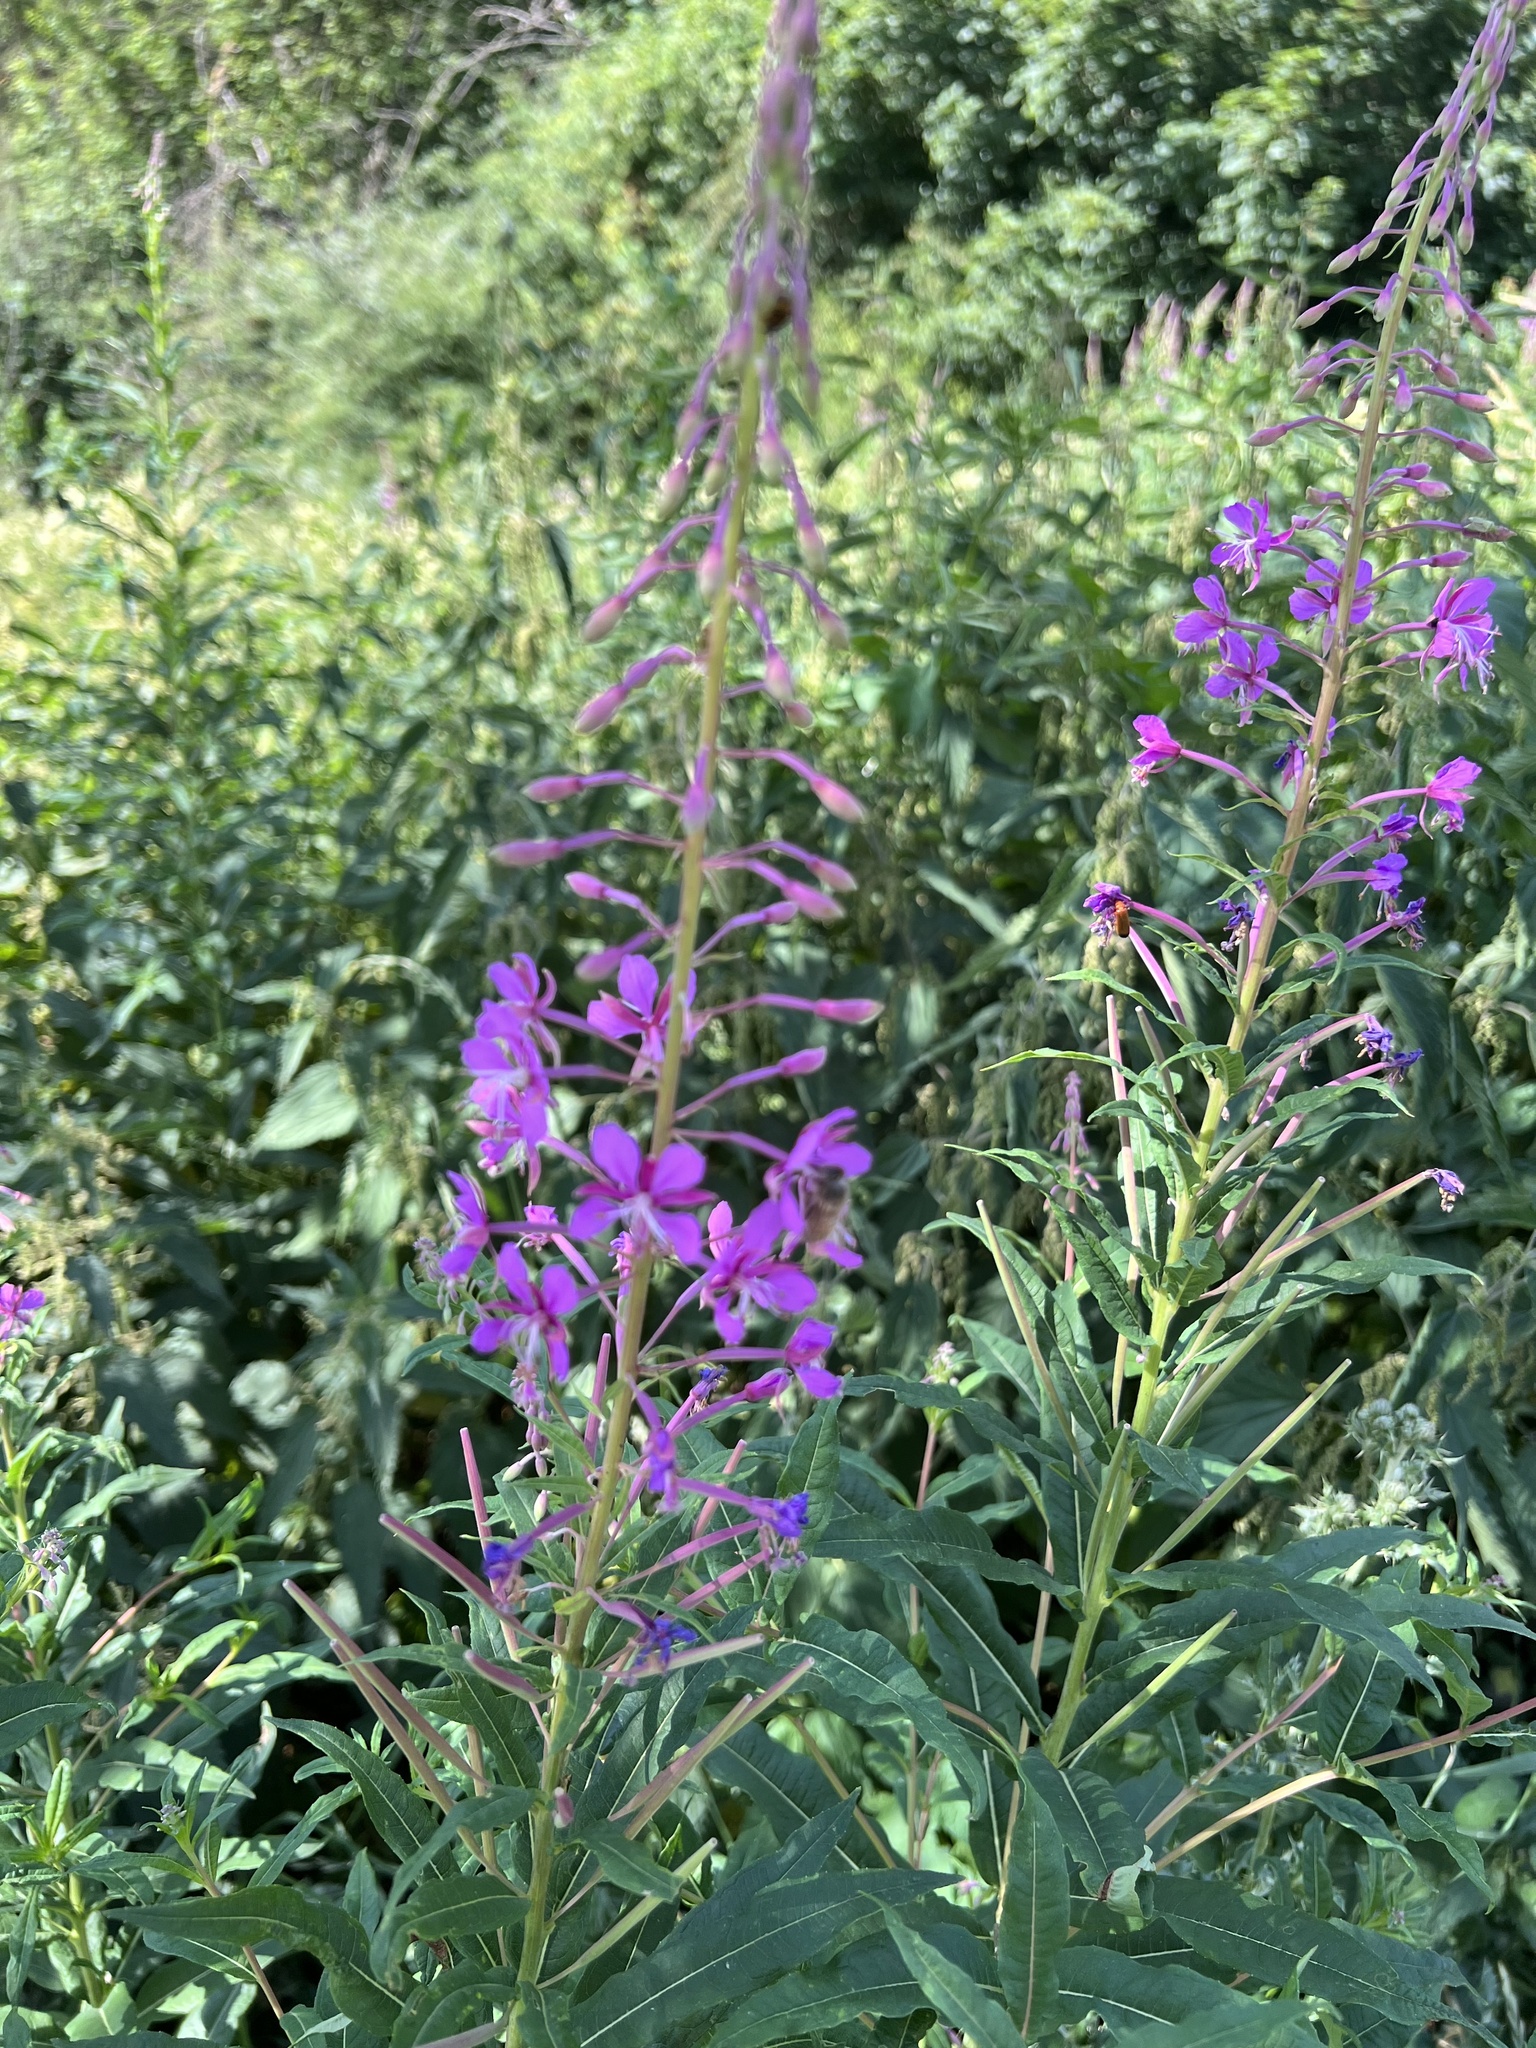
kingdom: Plantae
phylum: Tracheophyta
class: Magnoliopsida
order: Myrtales
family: Onagraceae
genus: Chamaenerion
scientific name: Chamaenerion angustifolium
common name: Fireweed
